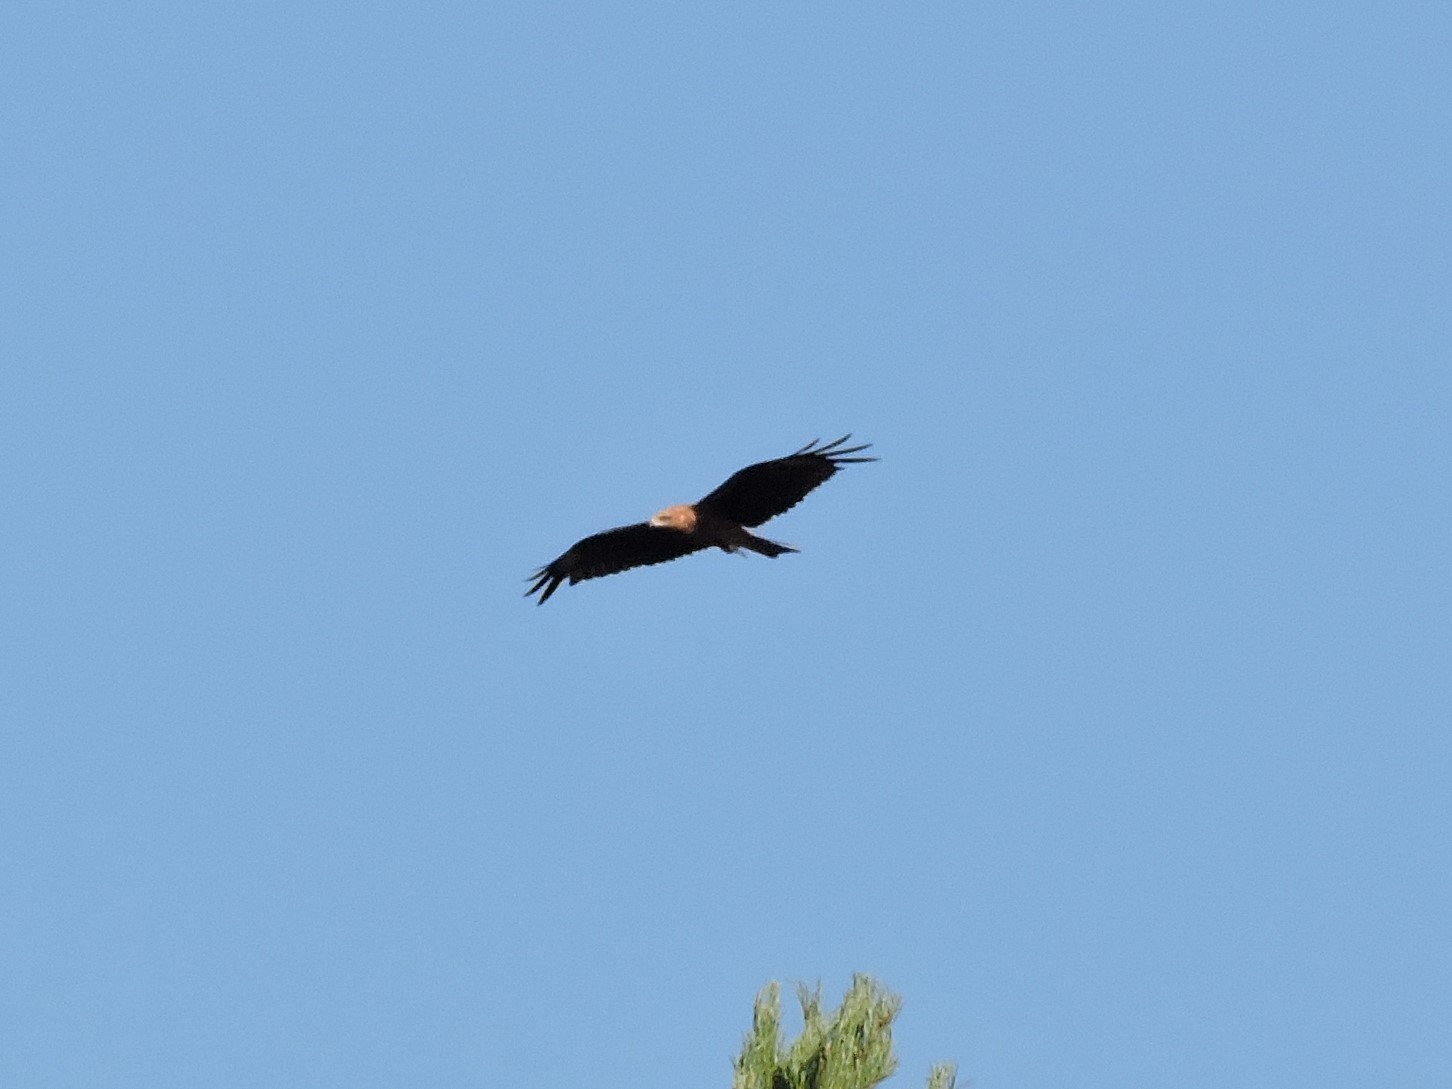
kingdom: Animalia
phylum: Chordata
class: Aves
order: Accipitriformes
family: Accipitridae
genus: Milvus
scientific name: Milvus migrans
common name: Black kite
